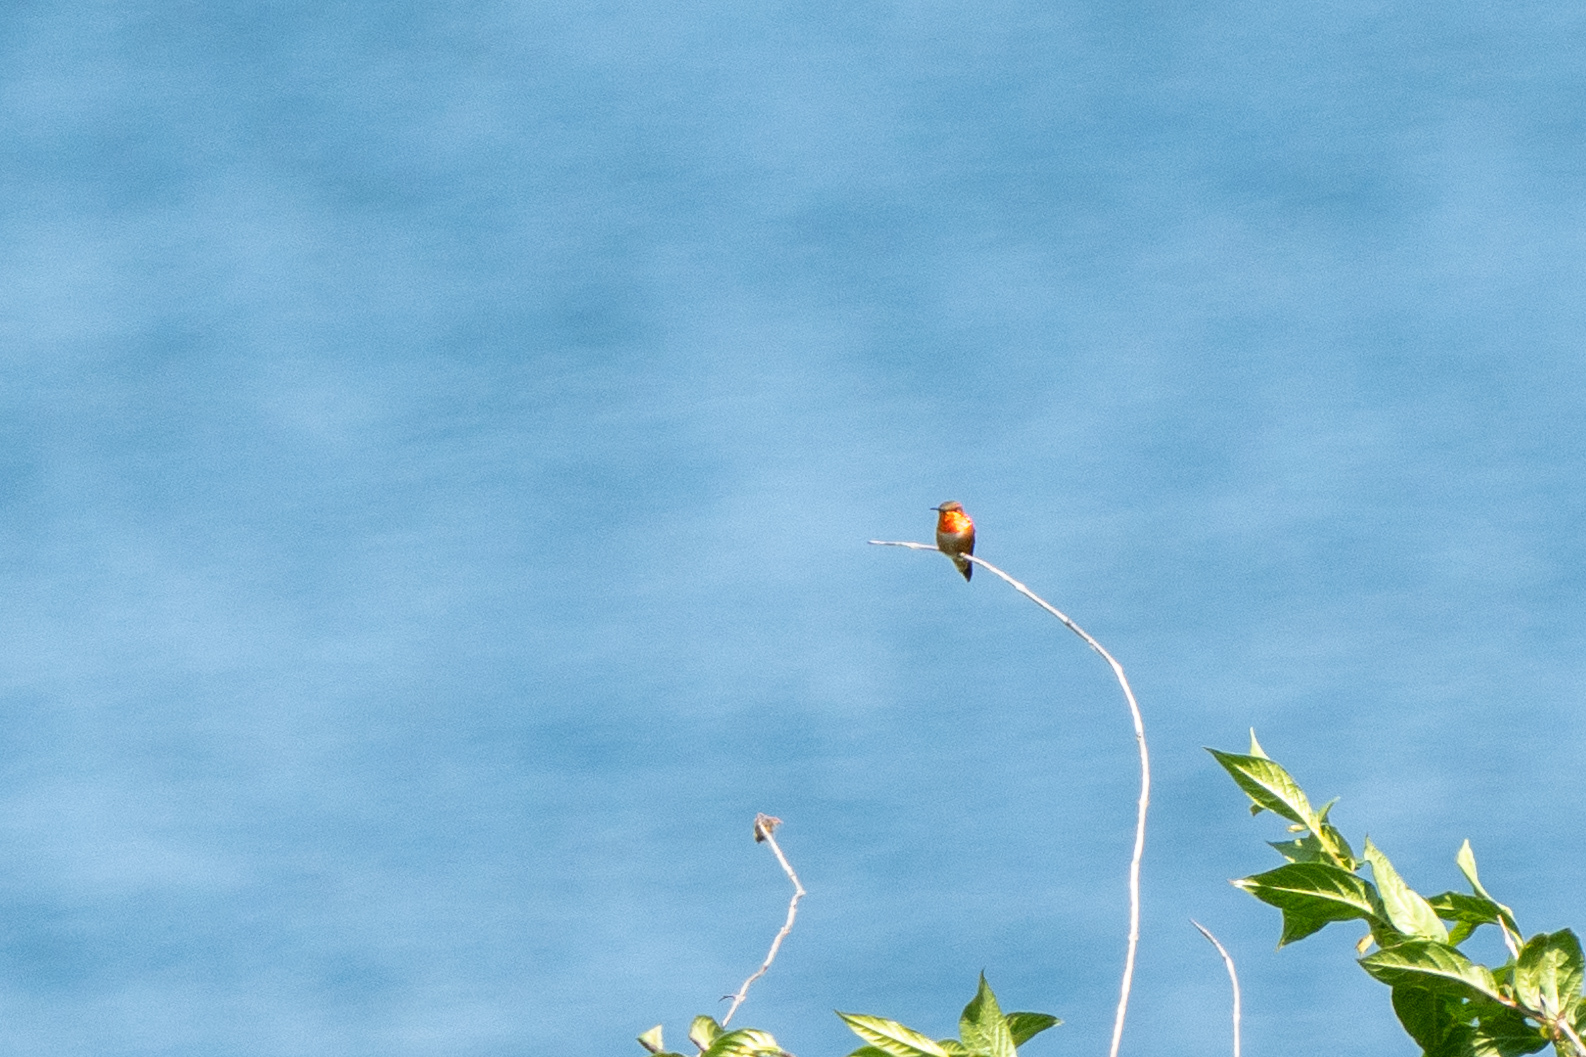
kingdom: Animalia
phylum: Chordata
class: Aves
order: Apodiformes
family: Trochilidae
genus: Selasphorus
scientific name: Selasphorus rufus
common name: Rufous hummingbird
